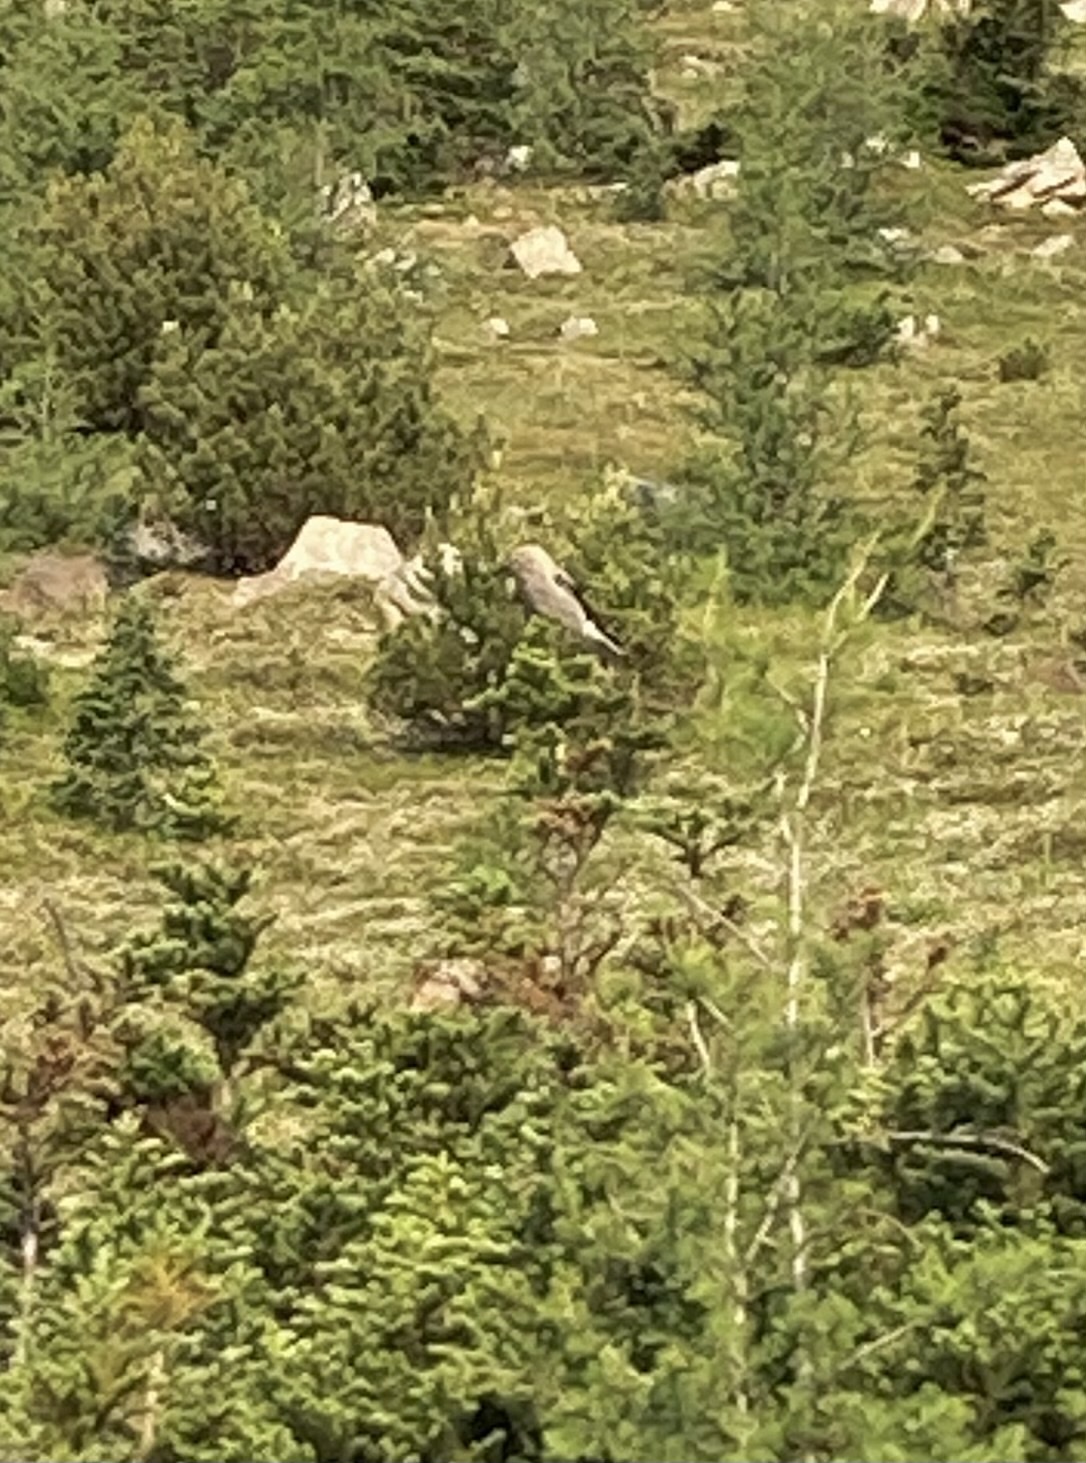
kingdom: Animalia
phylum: Chordata
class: Aves
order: Passeriformes
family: Corvidae
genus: Nucifraga
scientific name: Nucifraga columbiana
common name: Clark's nutcracker
